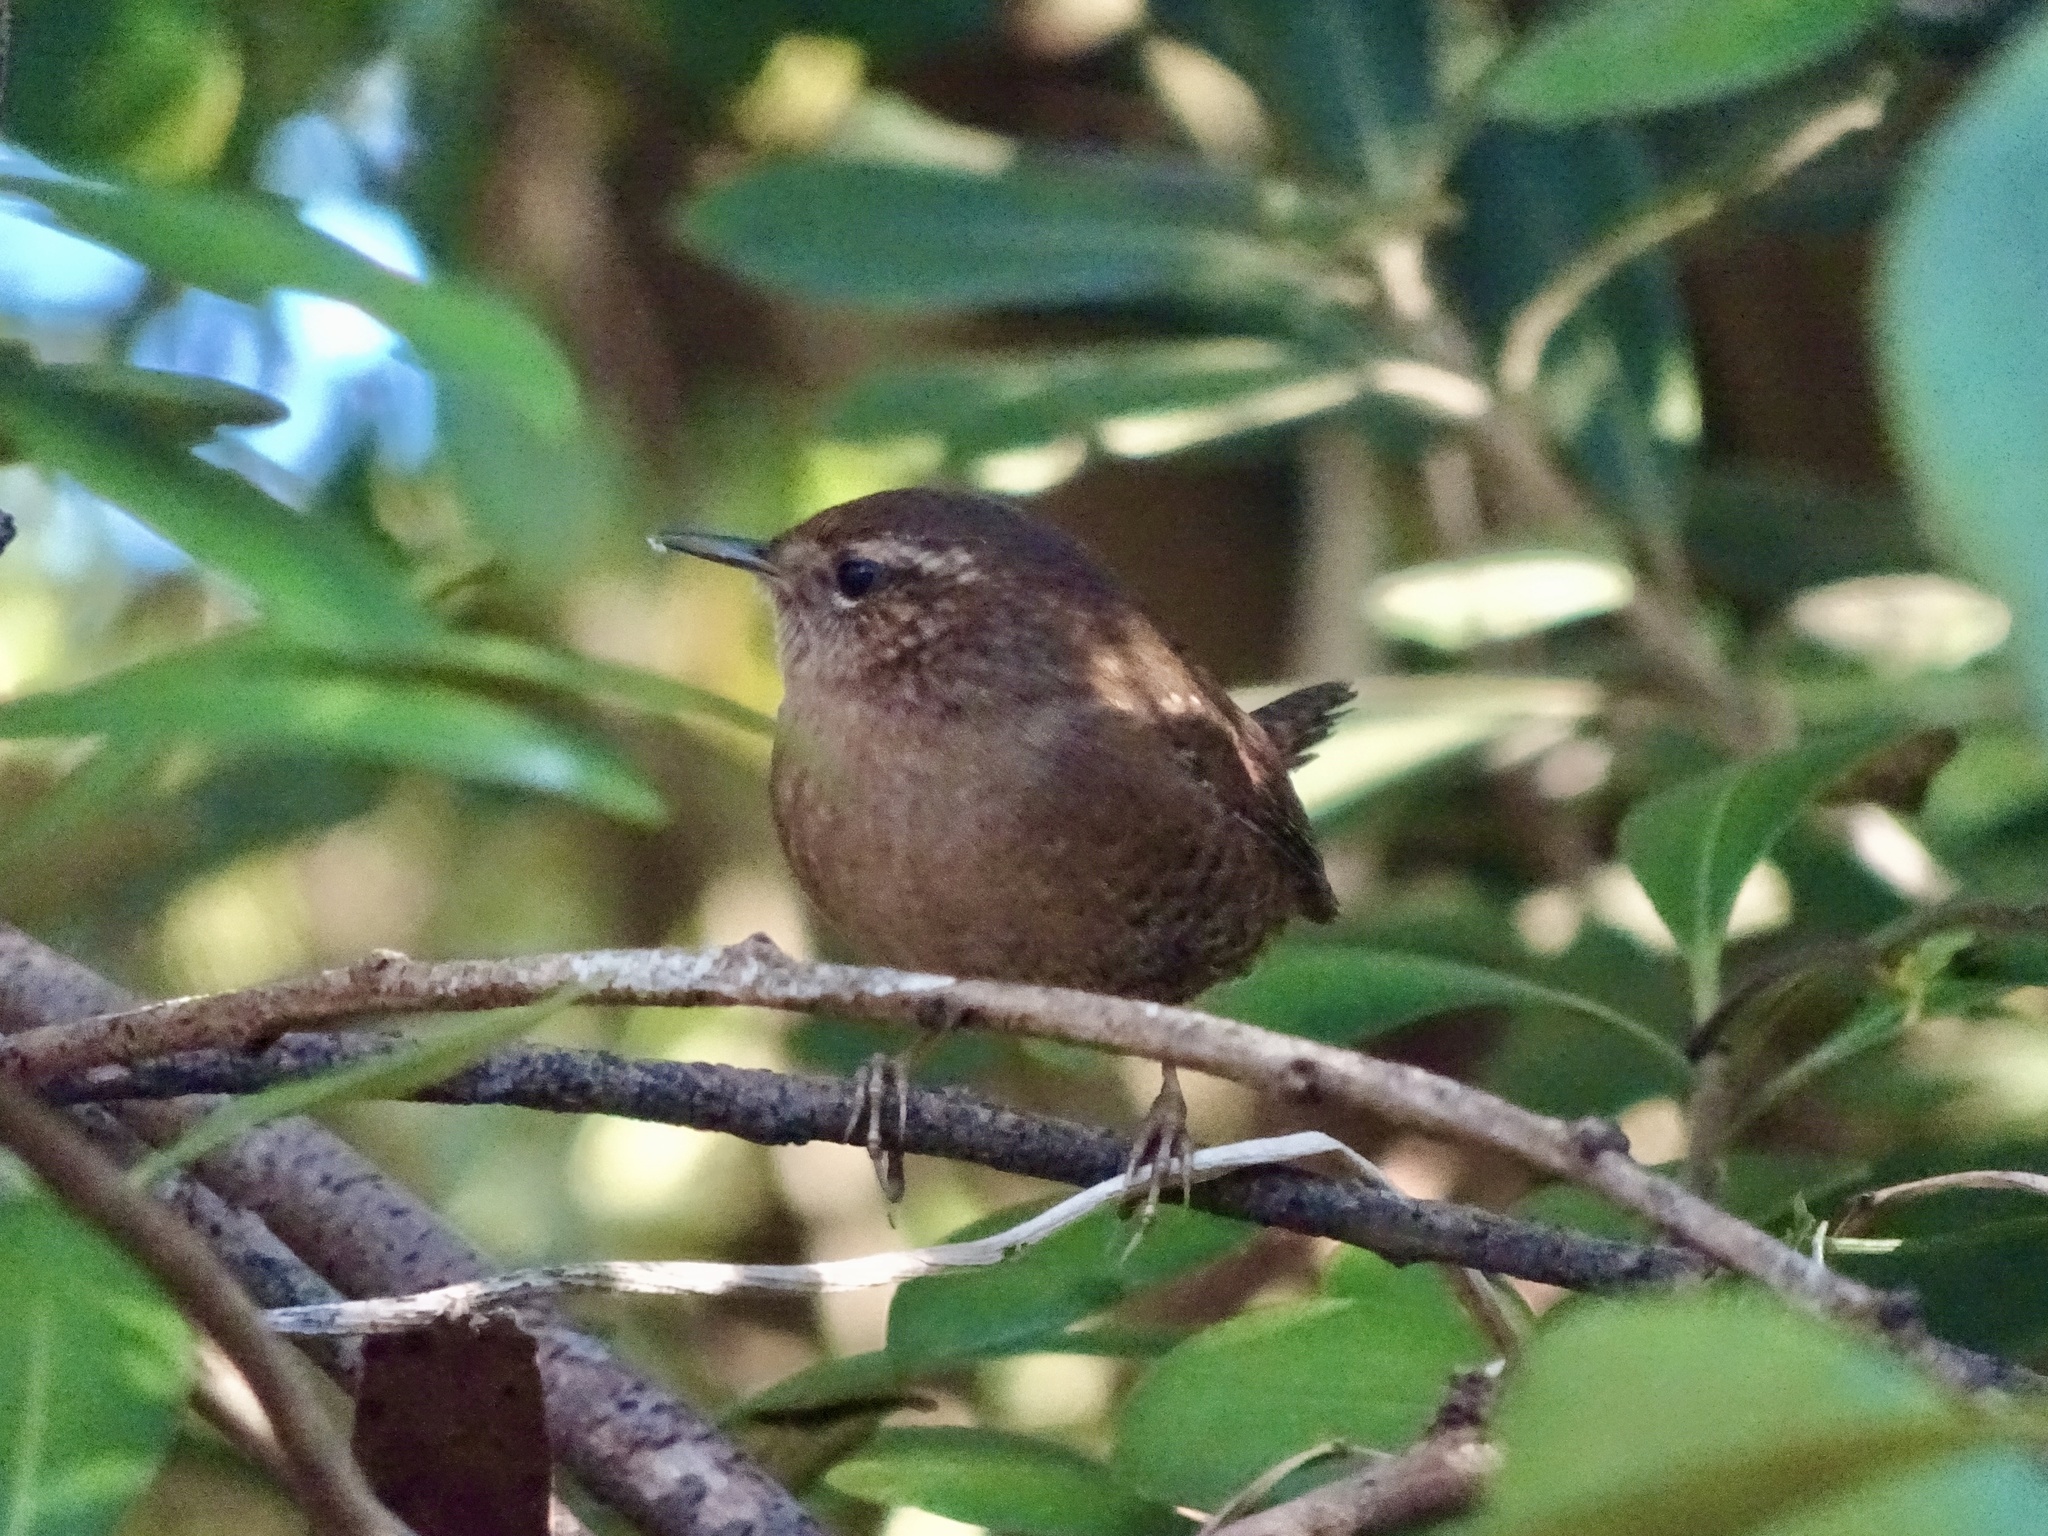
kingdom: Animalia
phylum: Chordata
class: Aves
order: Passeriformes
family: Troglodytidae
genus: Troglodytes
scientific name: Troglodytes pacificus
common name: Pacific wren
